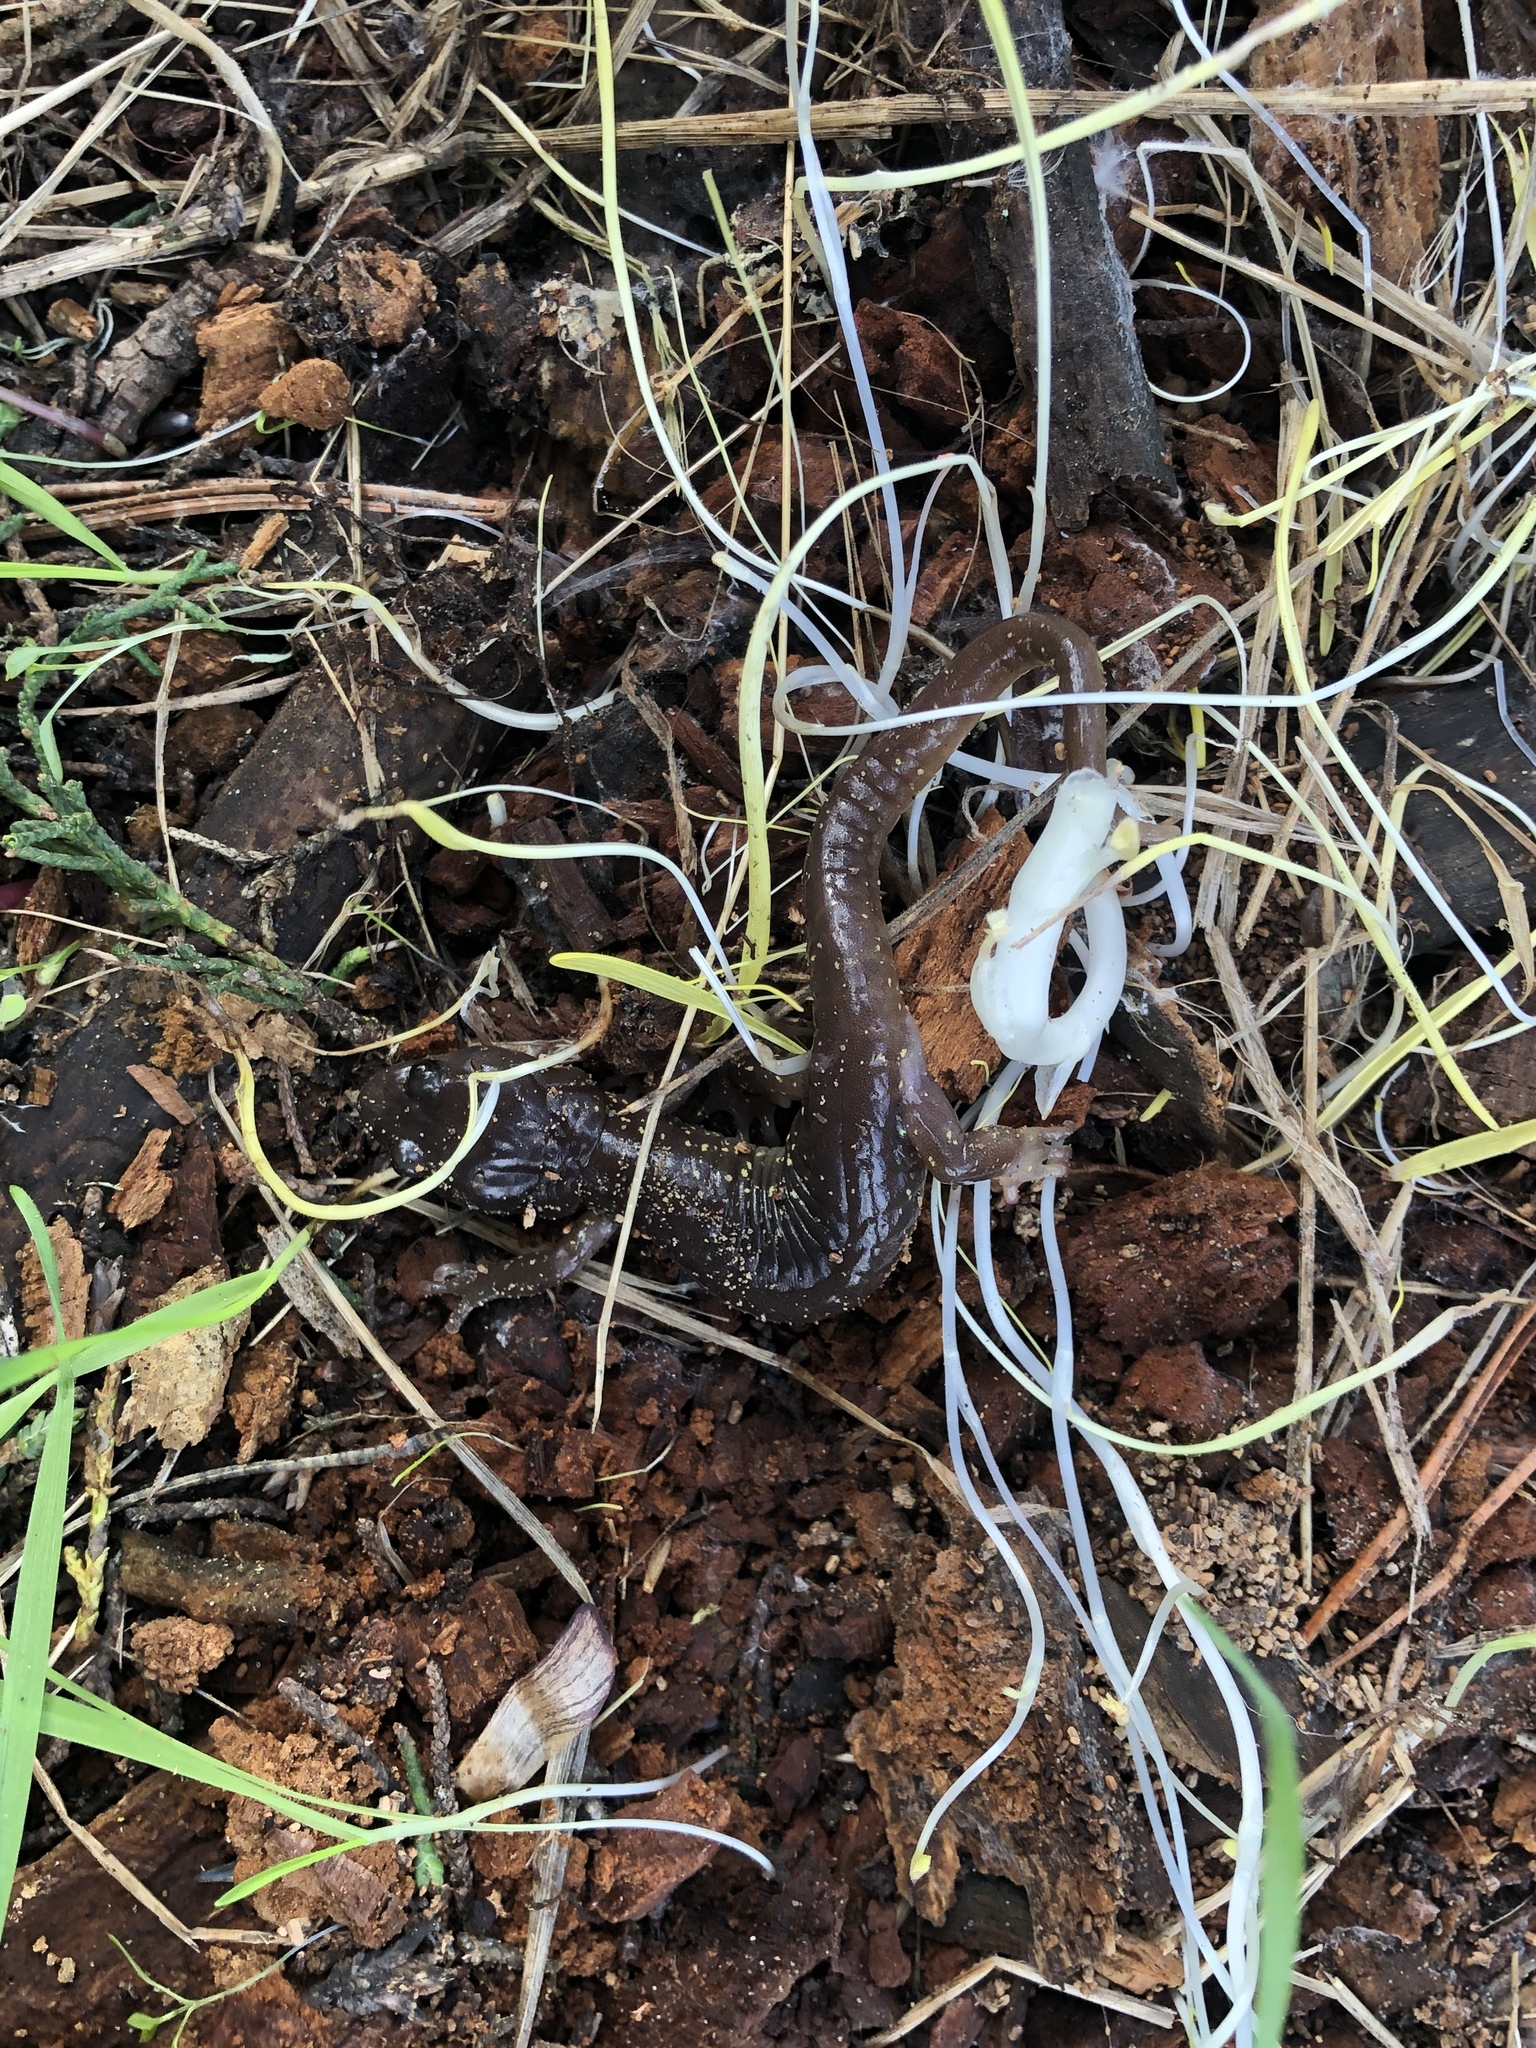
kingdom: Animalia
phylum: Chordata
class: Amphibia
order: Caudata
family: Plethodontidae
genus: Aneides
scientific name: Aneides lugubris
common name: Arboreal salamander
